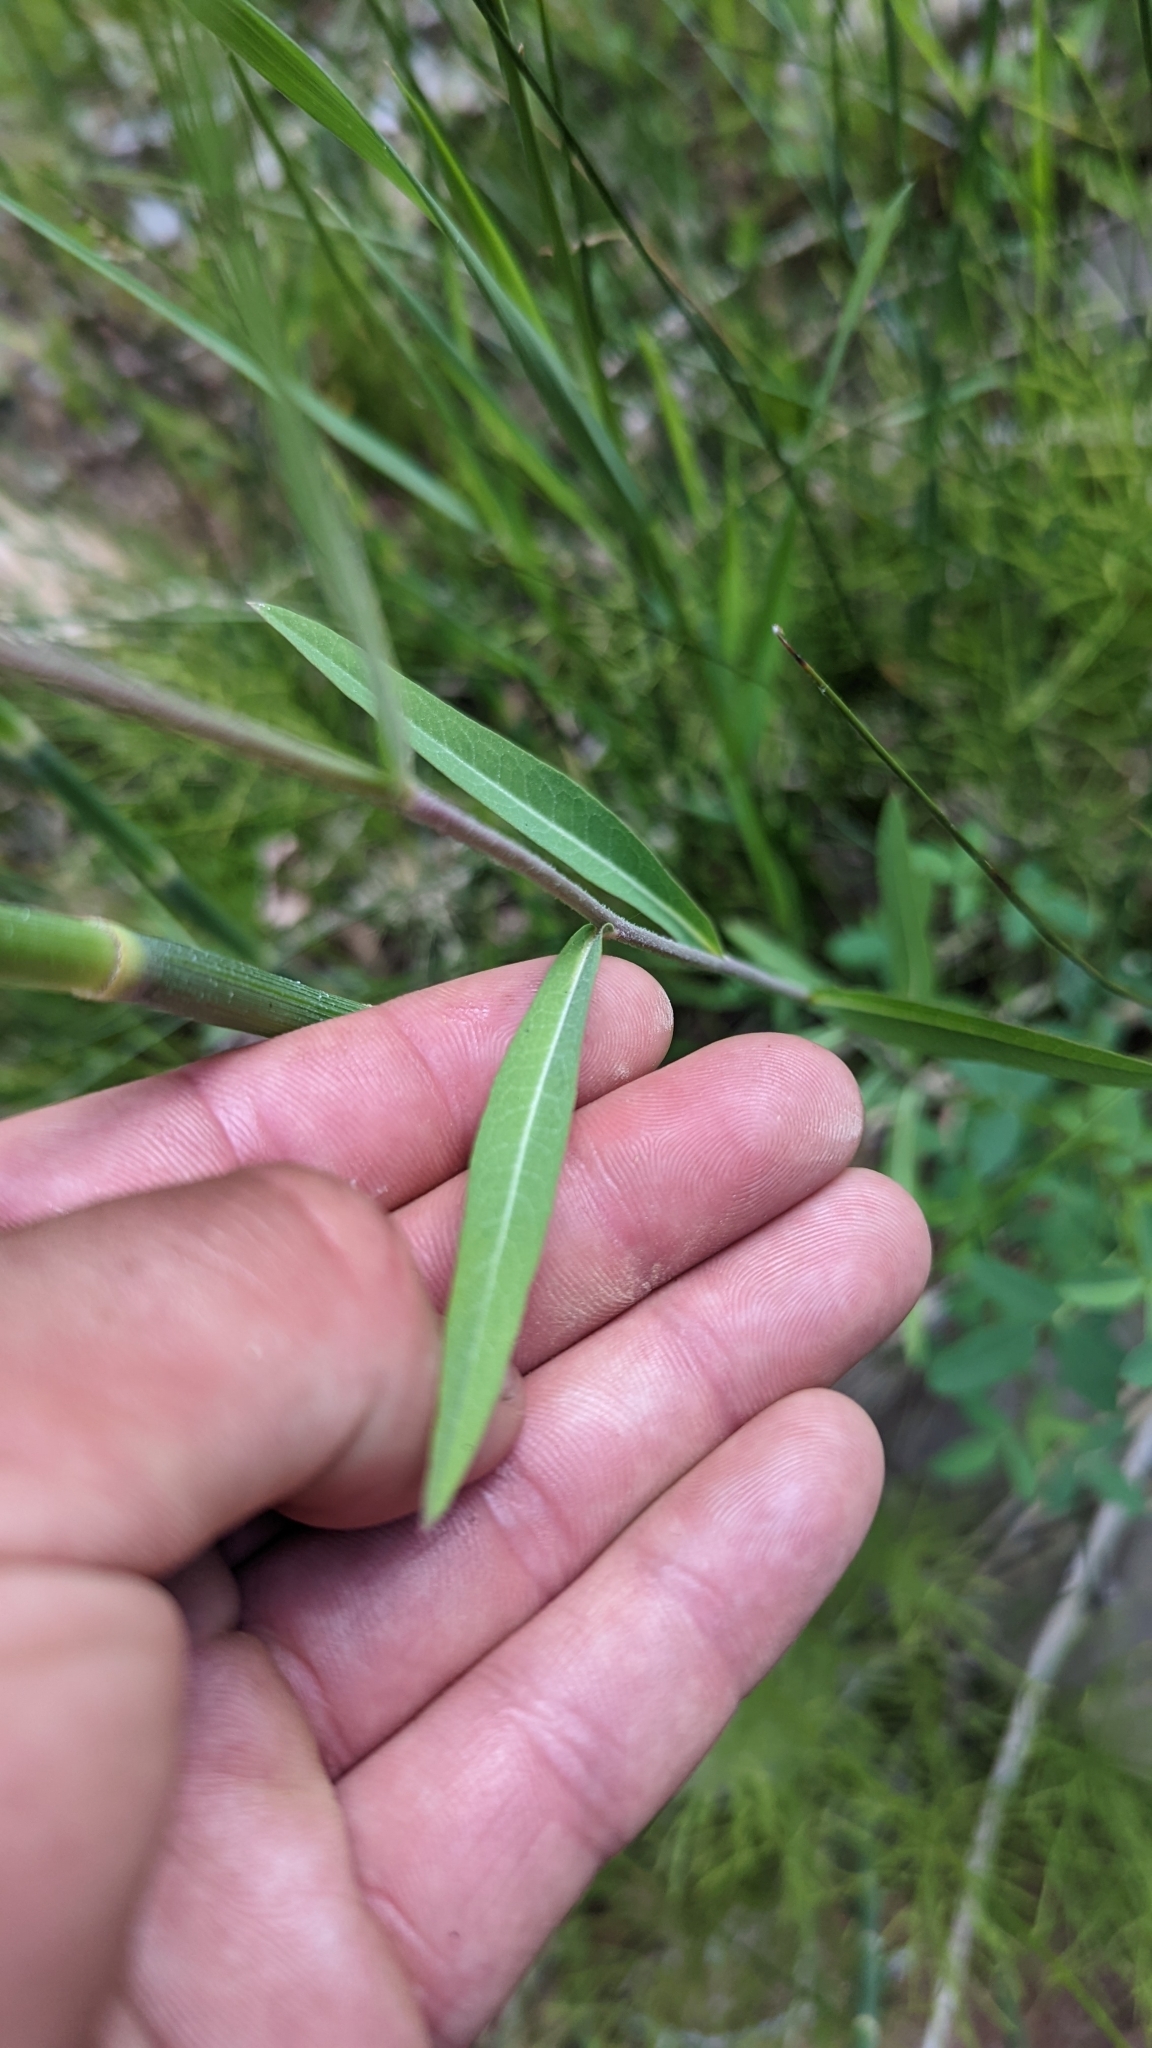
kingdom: Plantae
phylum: Tracheophyta
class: Magnoliopsida
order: Asterales
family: Asteraceae
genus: Lactuca
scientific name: Lactuca pulchella
